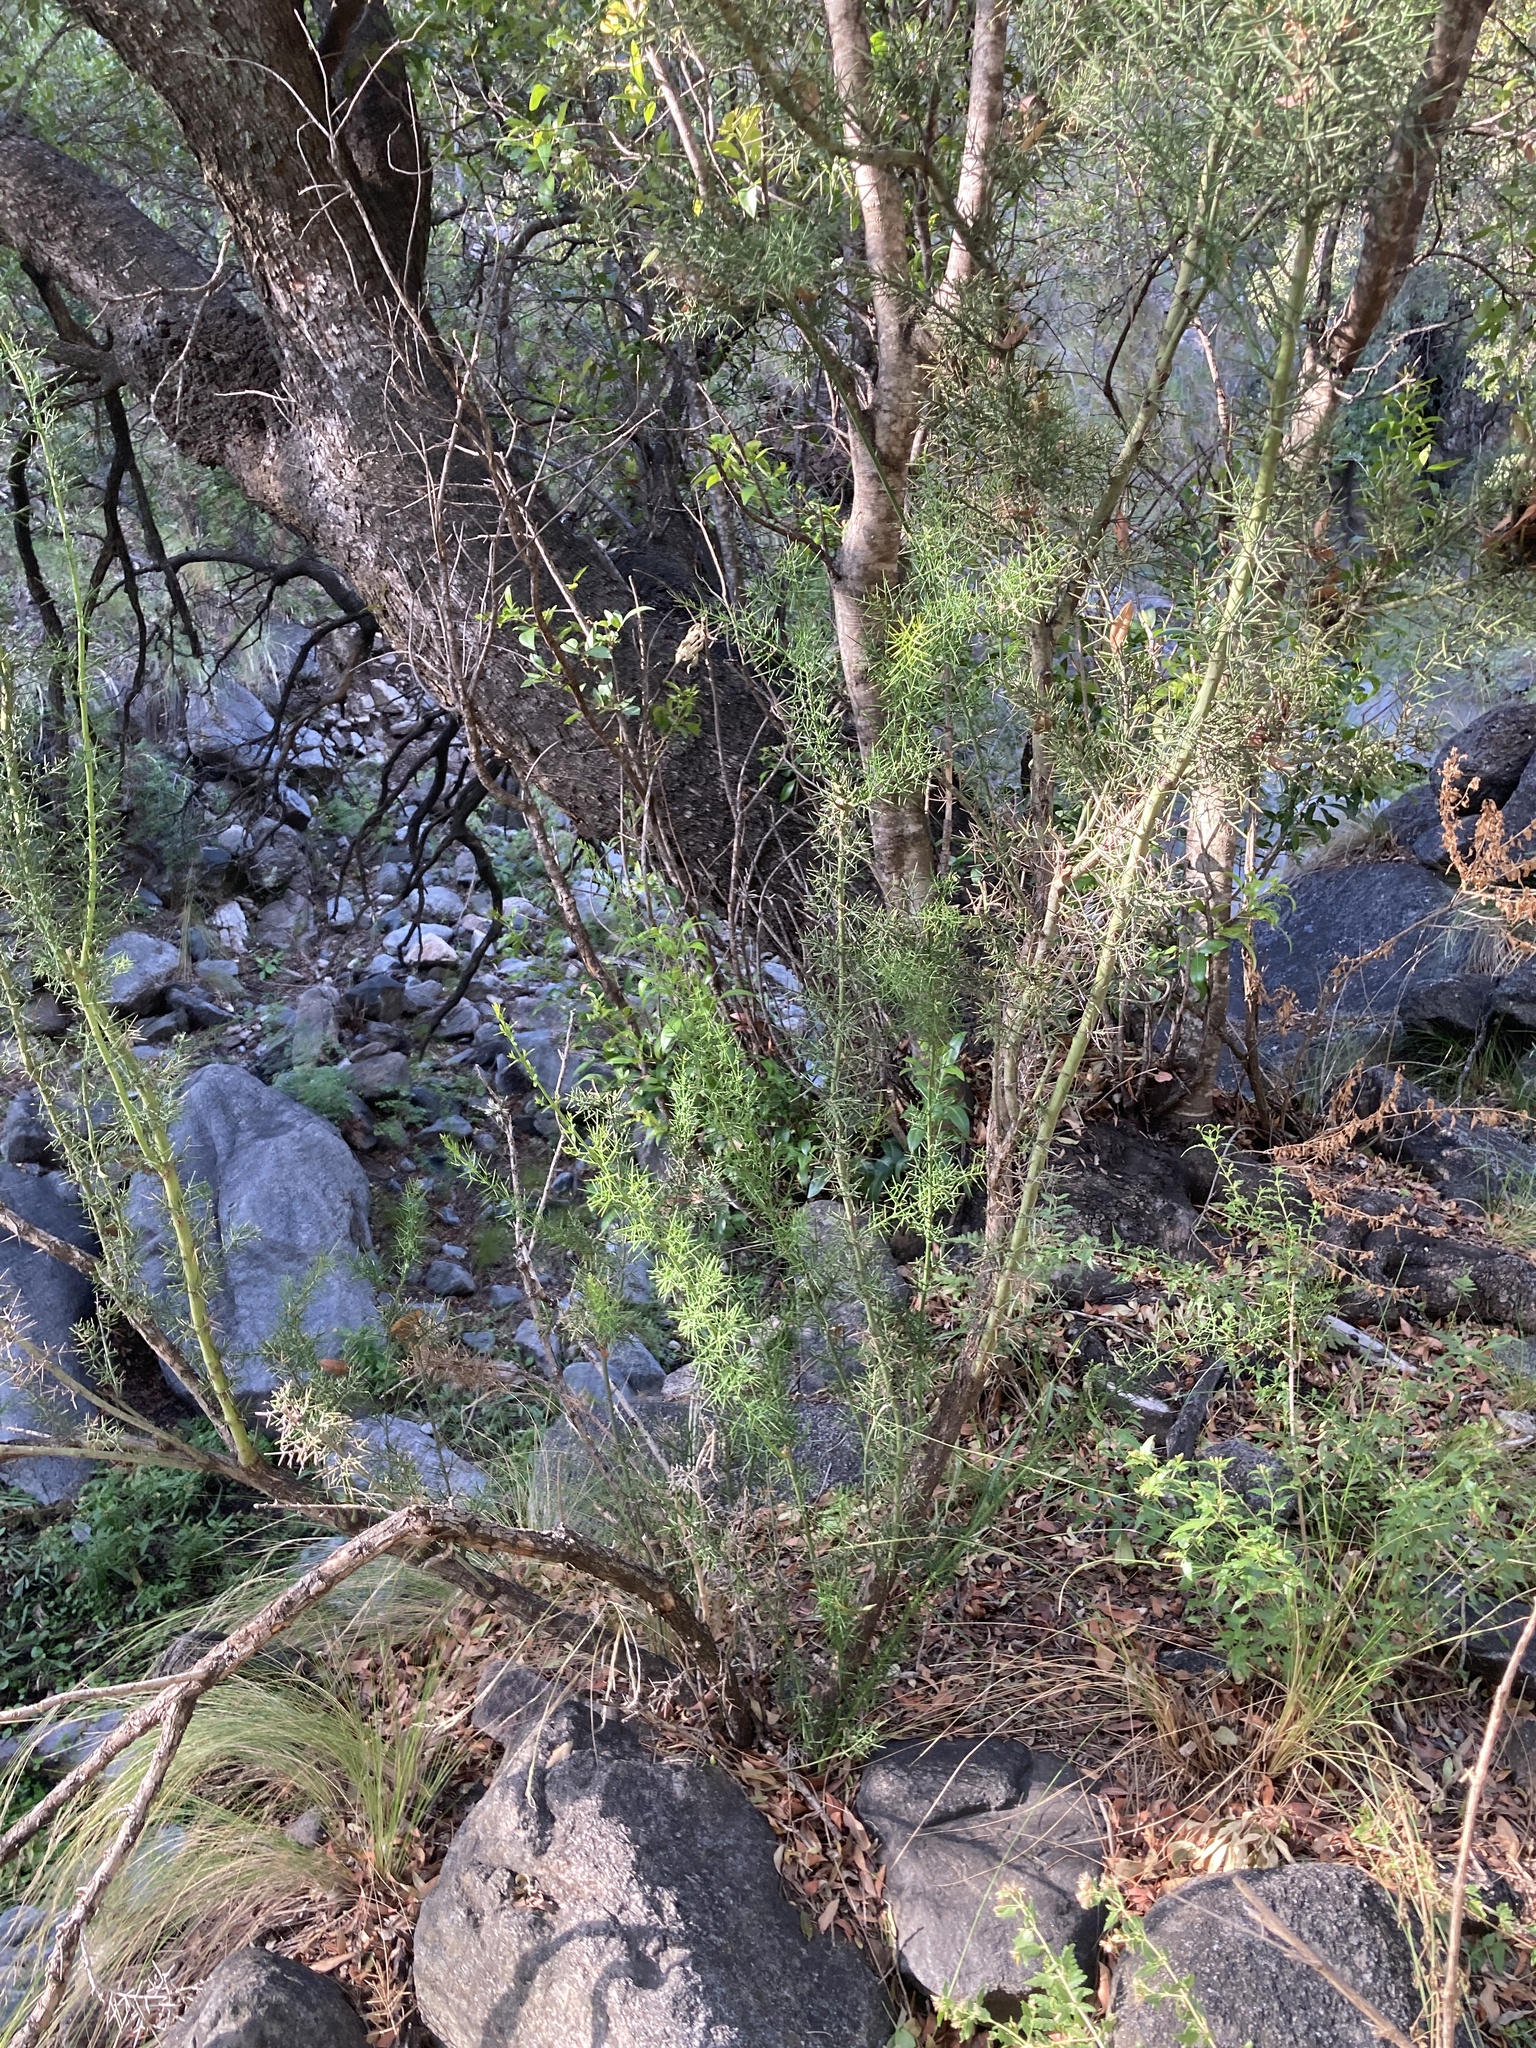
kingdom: Plantae
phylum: Tracheophyta
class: Magnoliopsida
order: Rosales
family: Rhamnaceae
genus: Colletia
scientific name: Colletia spinosissima
